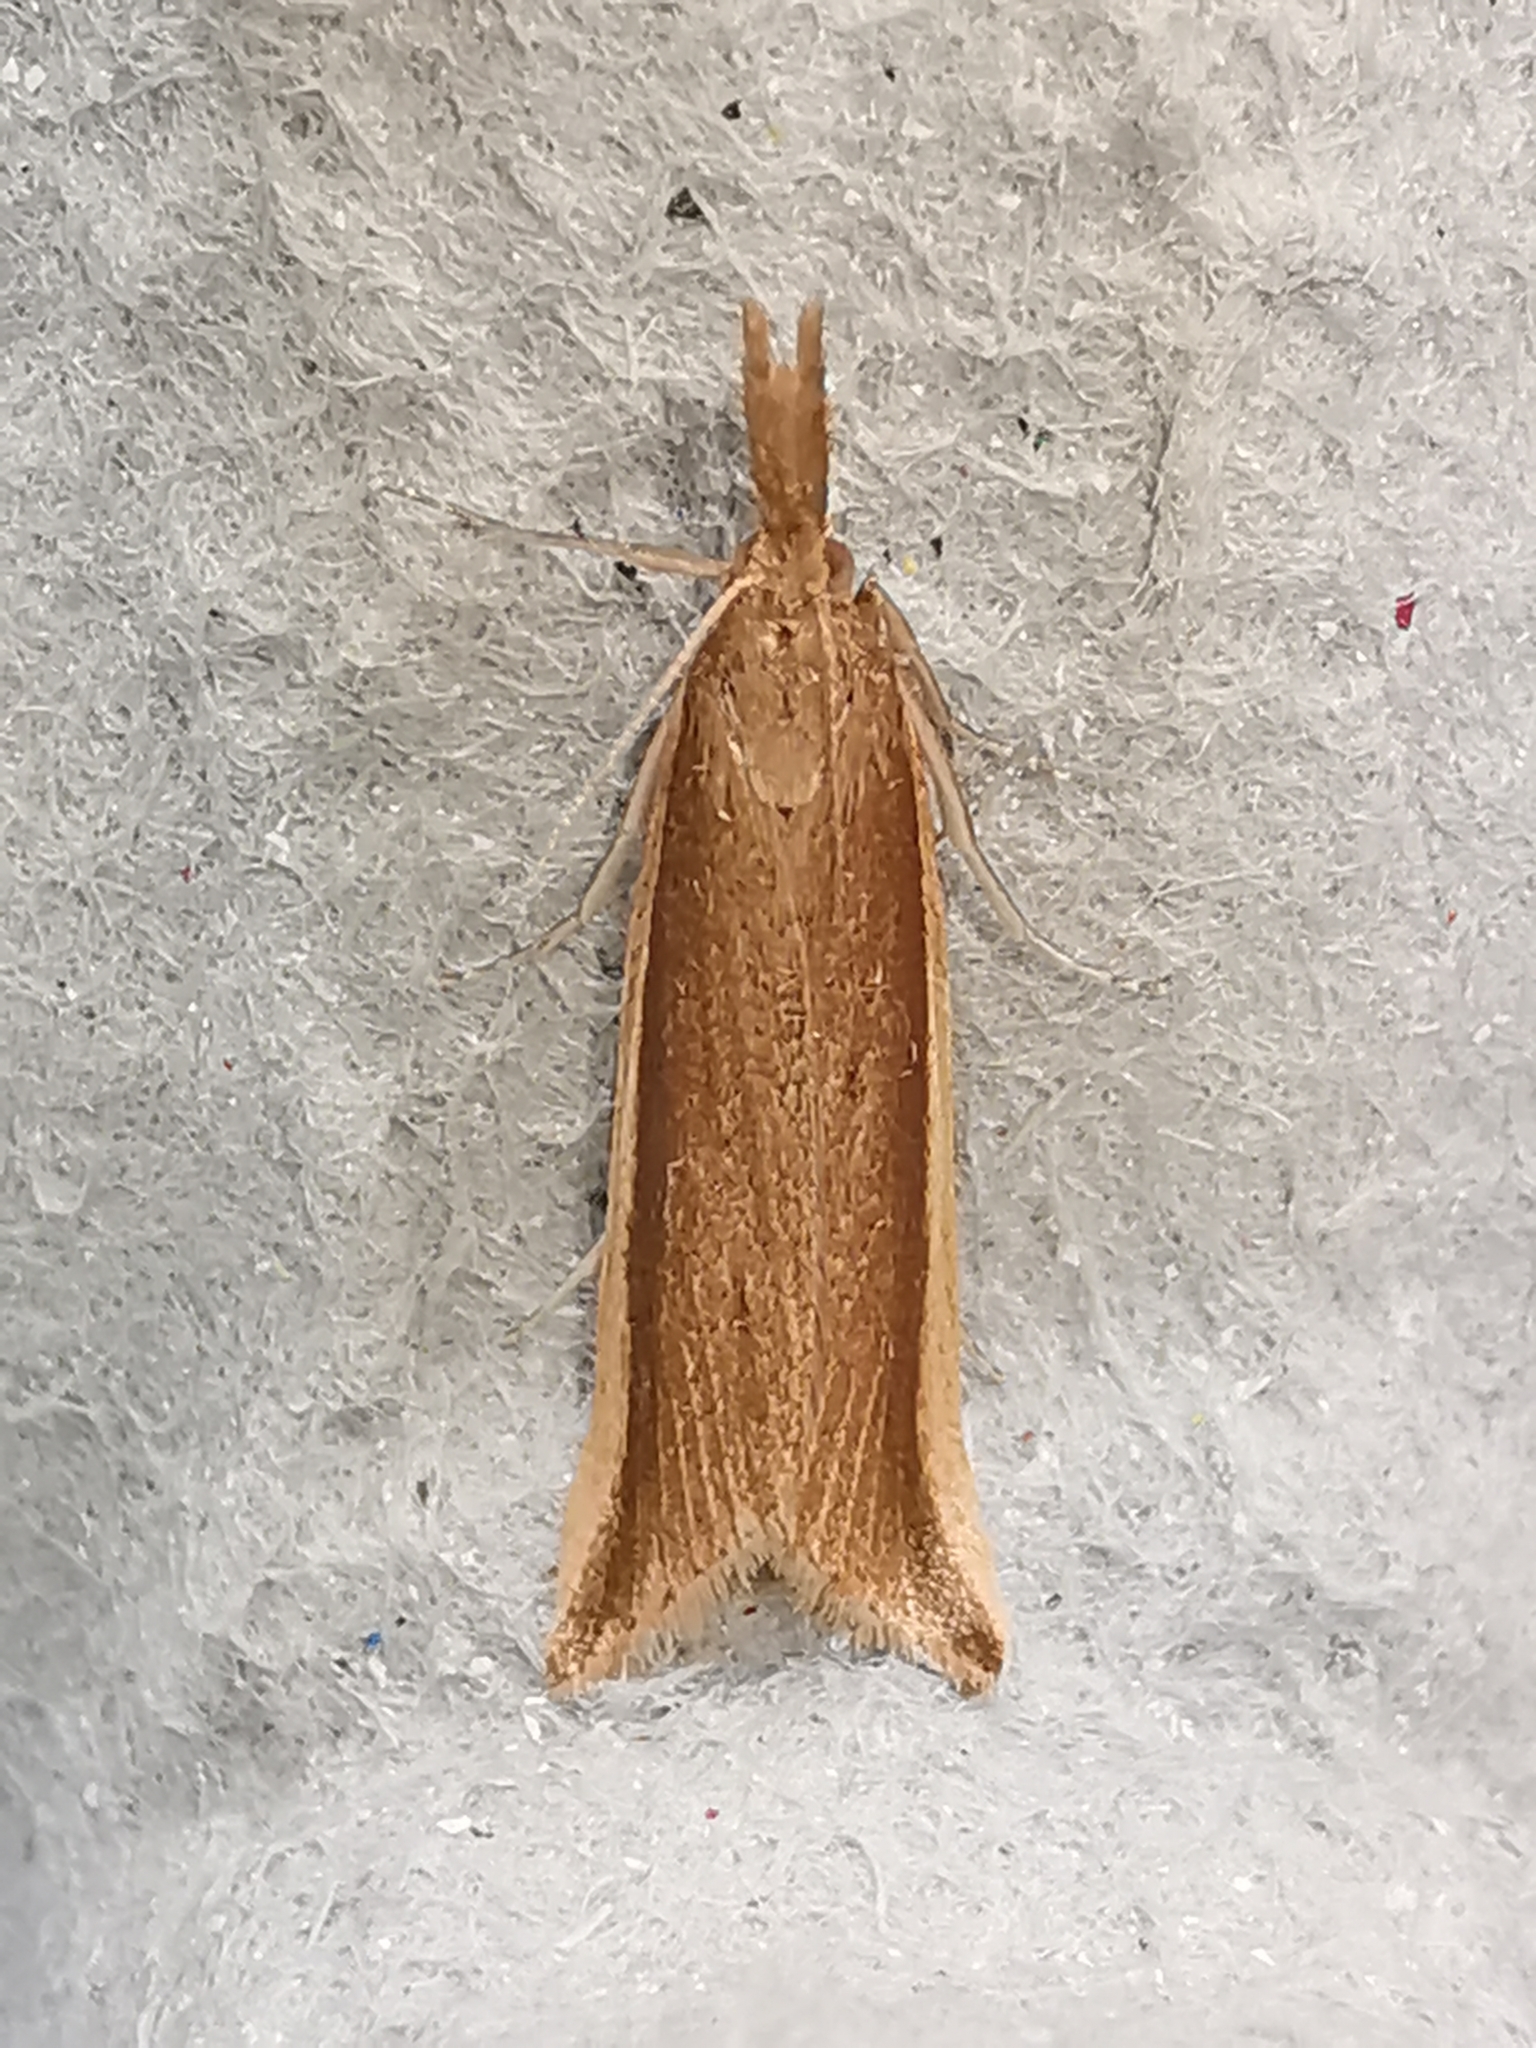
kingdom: Animalia
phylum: Arthropoda
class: Insecta
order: Lepidoptera
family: Crambidae
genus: Donacaula
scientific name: Donacaula mucronella
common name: Scarce water-veneer
